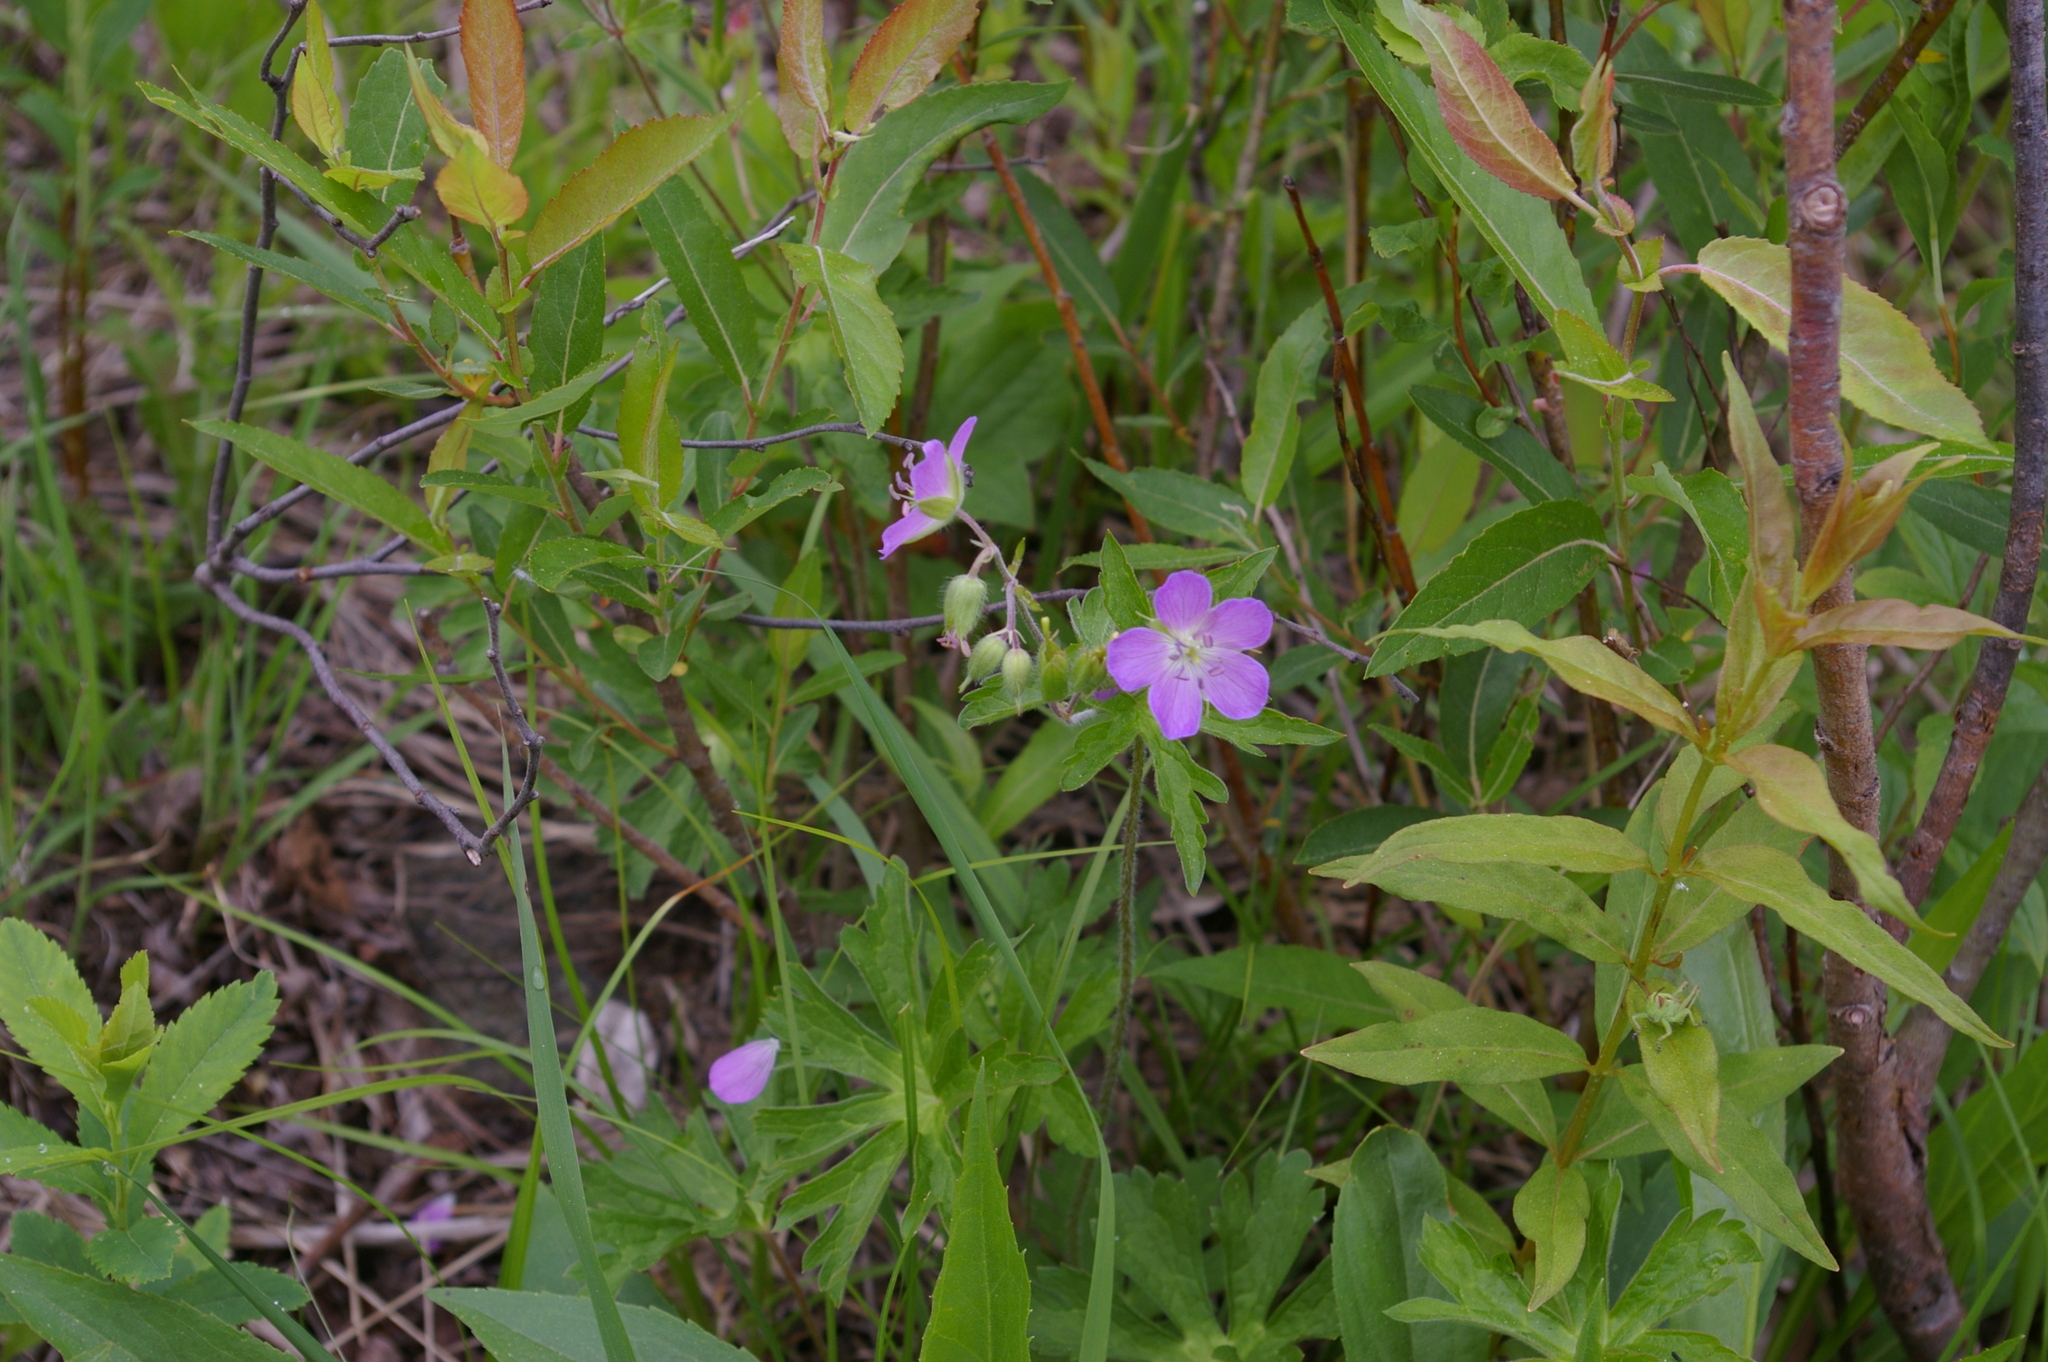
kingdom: Plantae
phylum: Tracheophyta
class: Magnoliopsida
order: Geraniales
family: Geraniaceae
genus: Geranium
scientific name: Geranium maculatum
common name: Spotted geranium
